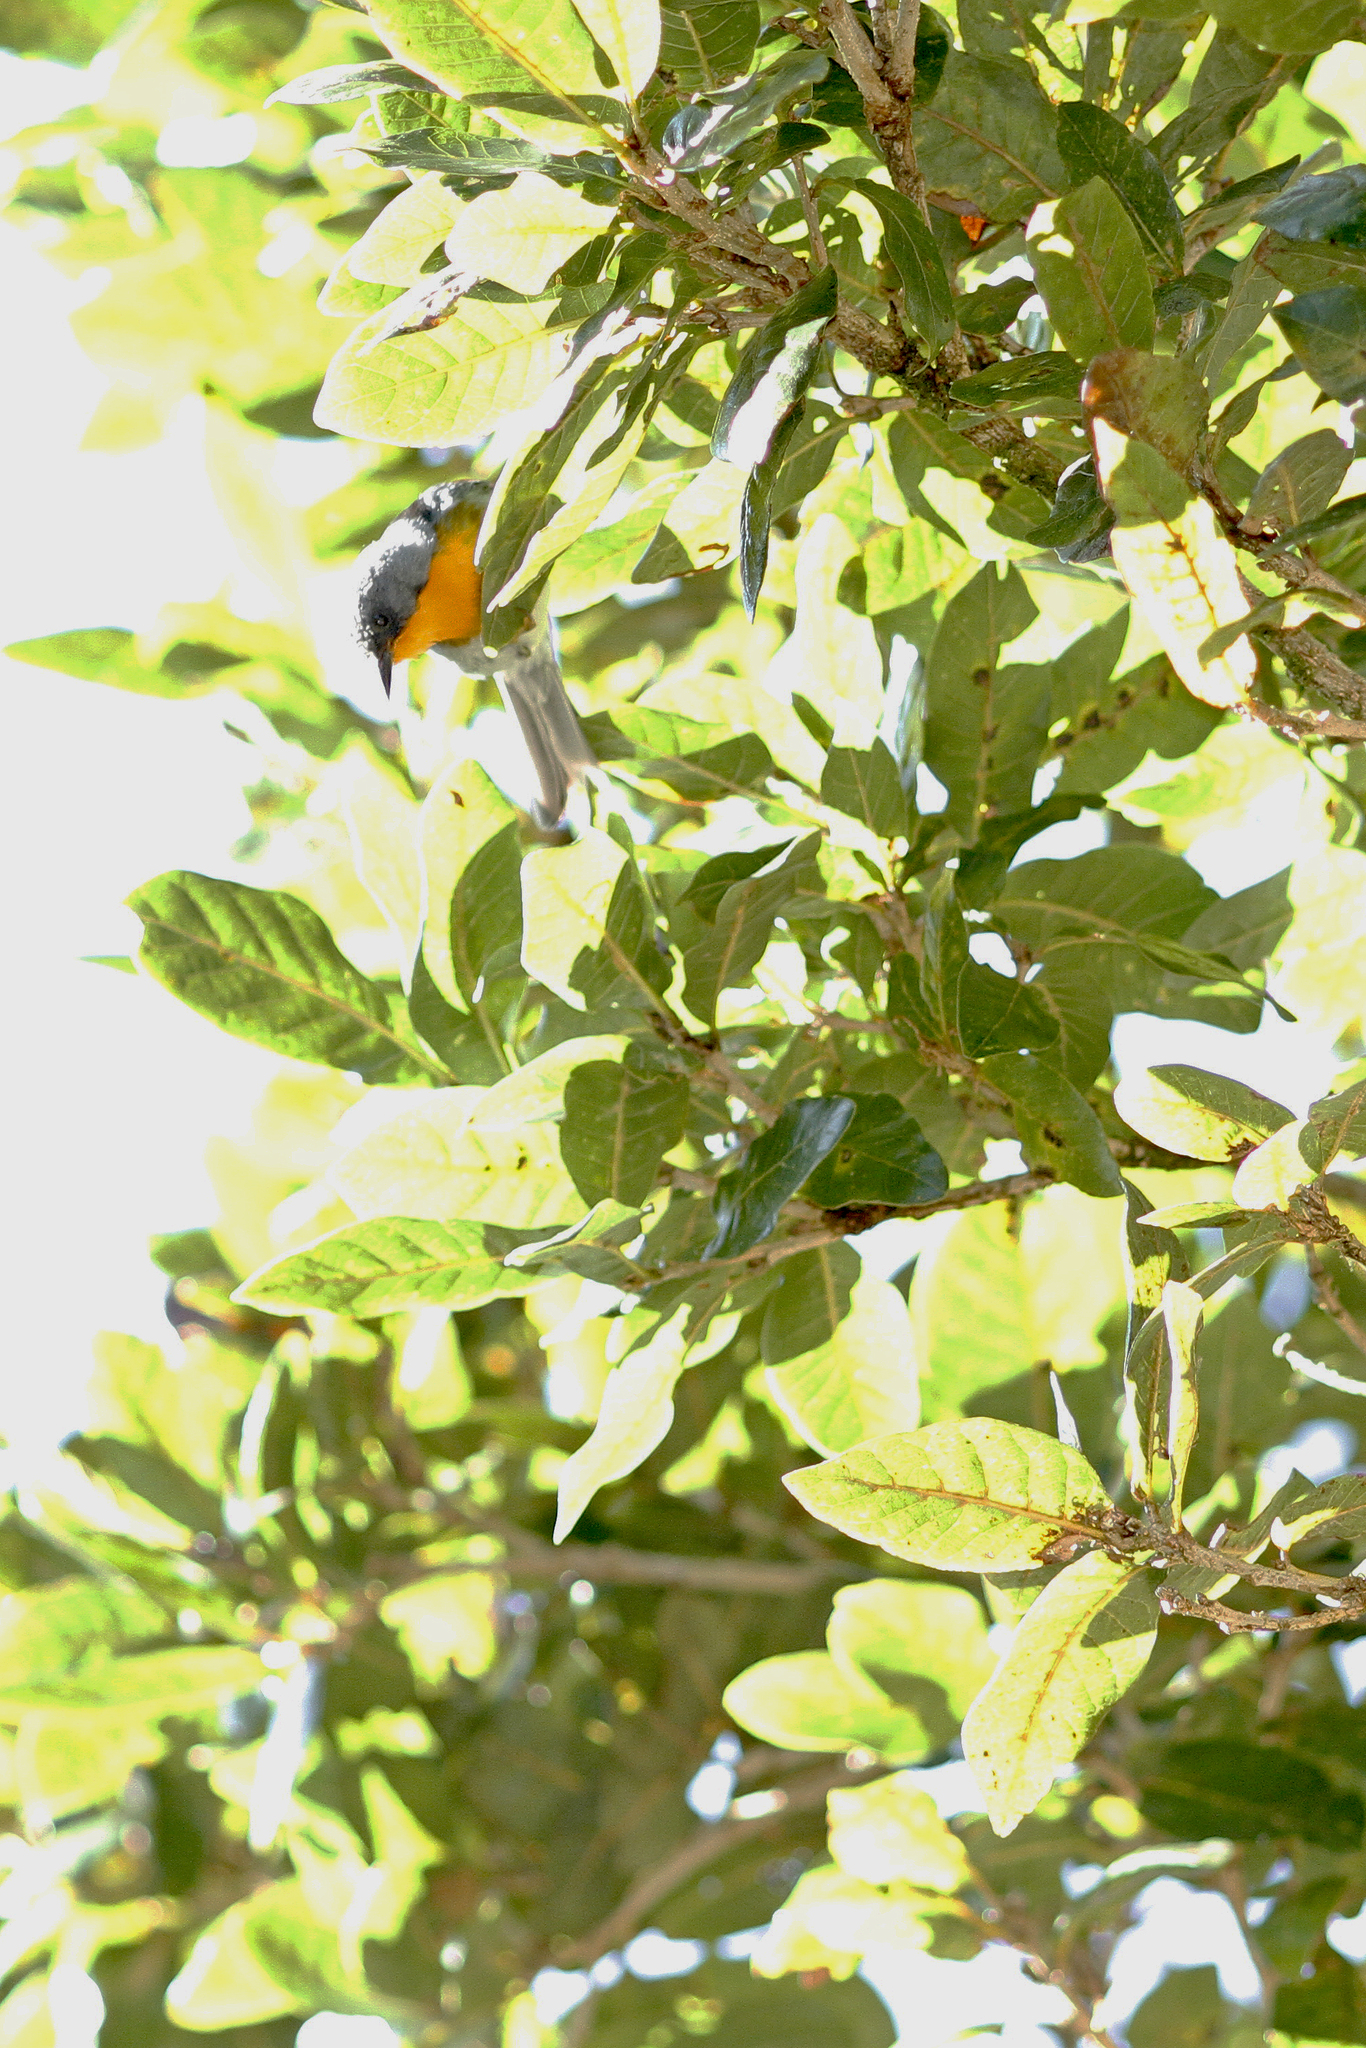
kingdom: Animalia
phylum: Chordata
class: Aves
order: Passeriformes
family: Parulidae
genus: Oreothlypis
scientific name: Oreothlypis gutturalis
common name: Flame-throated warbler
